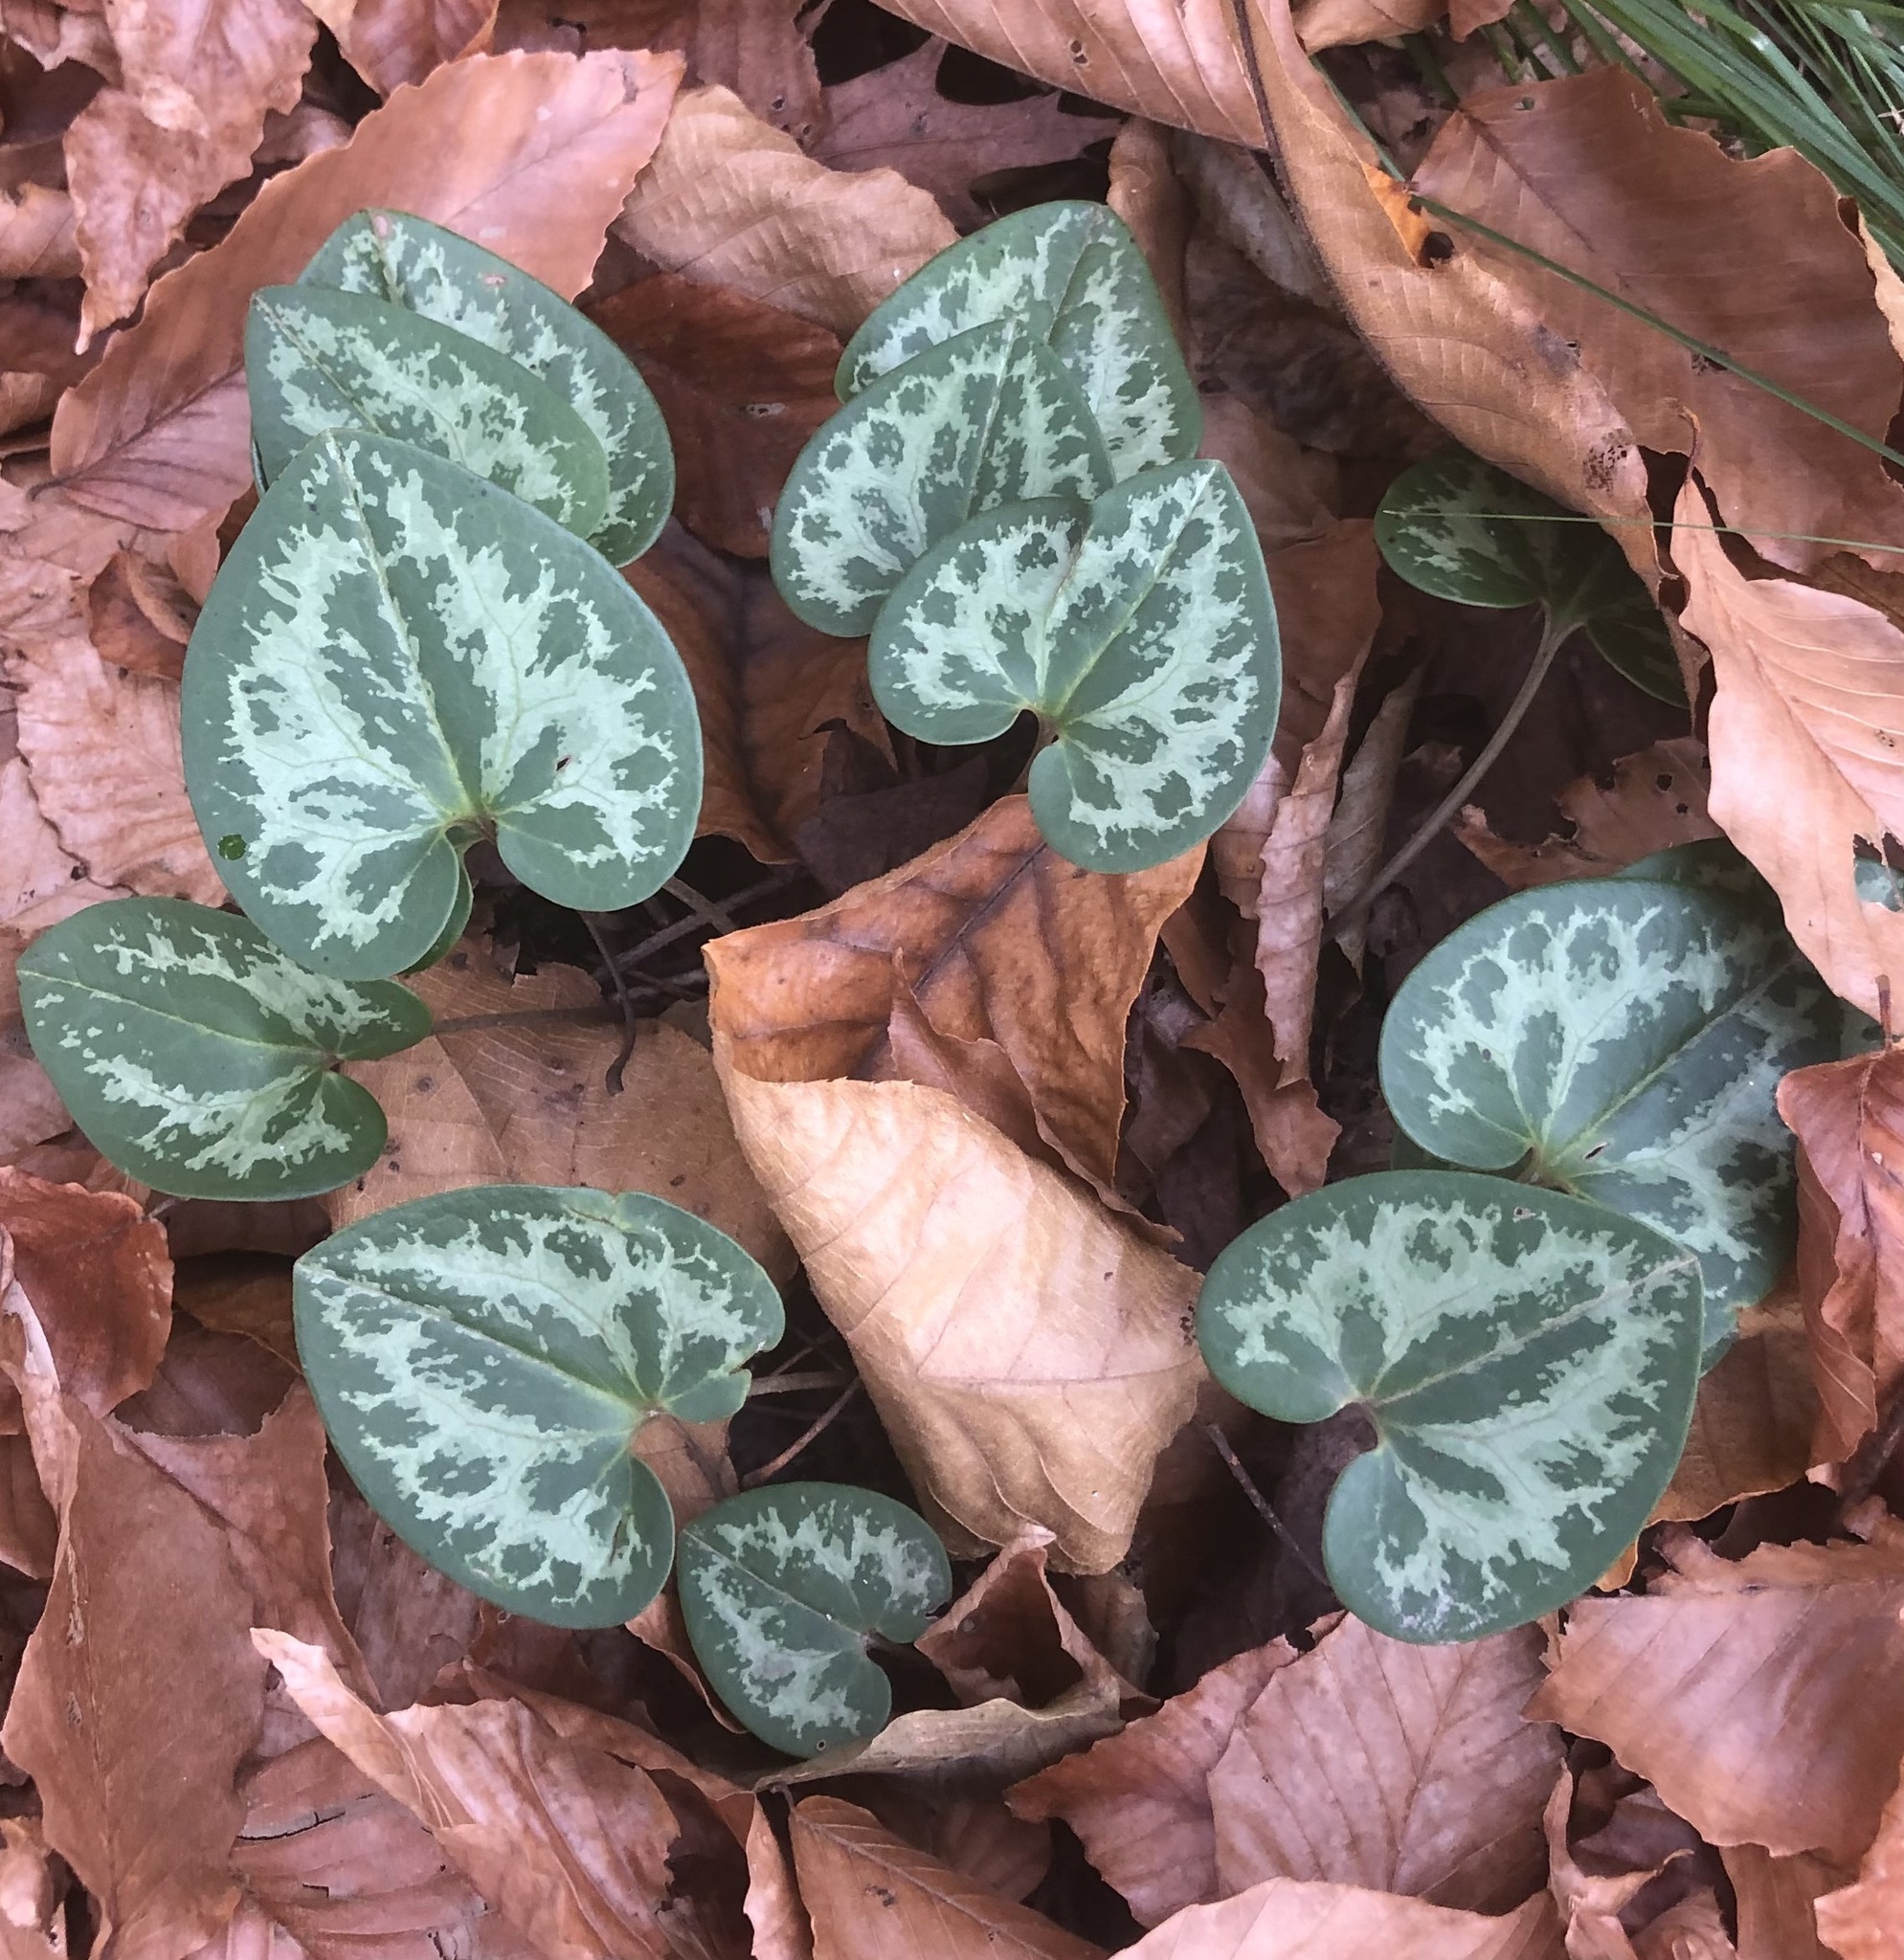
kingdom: Plantae
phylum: Tracheophyta
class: Magnoliopsida
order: Piperales
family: Aristolochiaceae
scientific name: Aristolochiaceae
